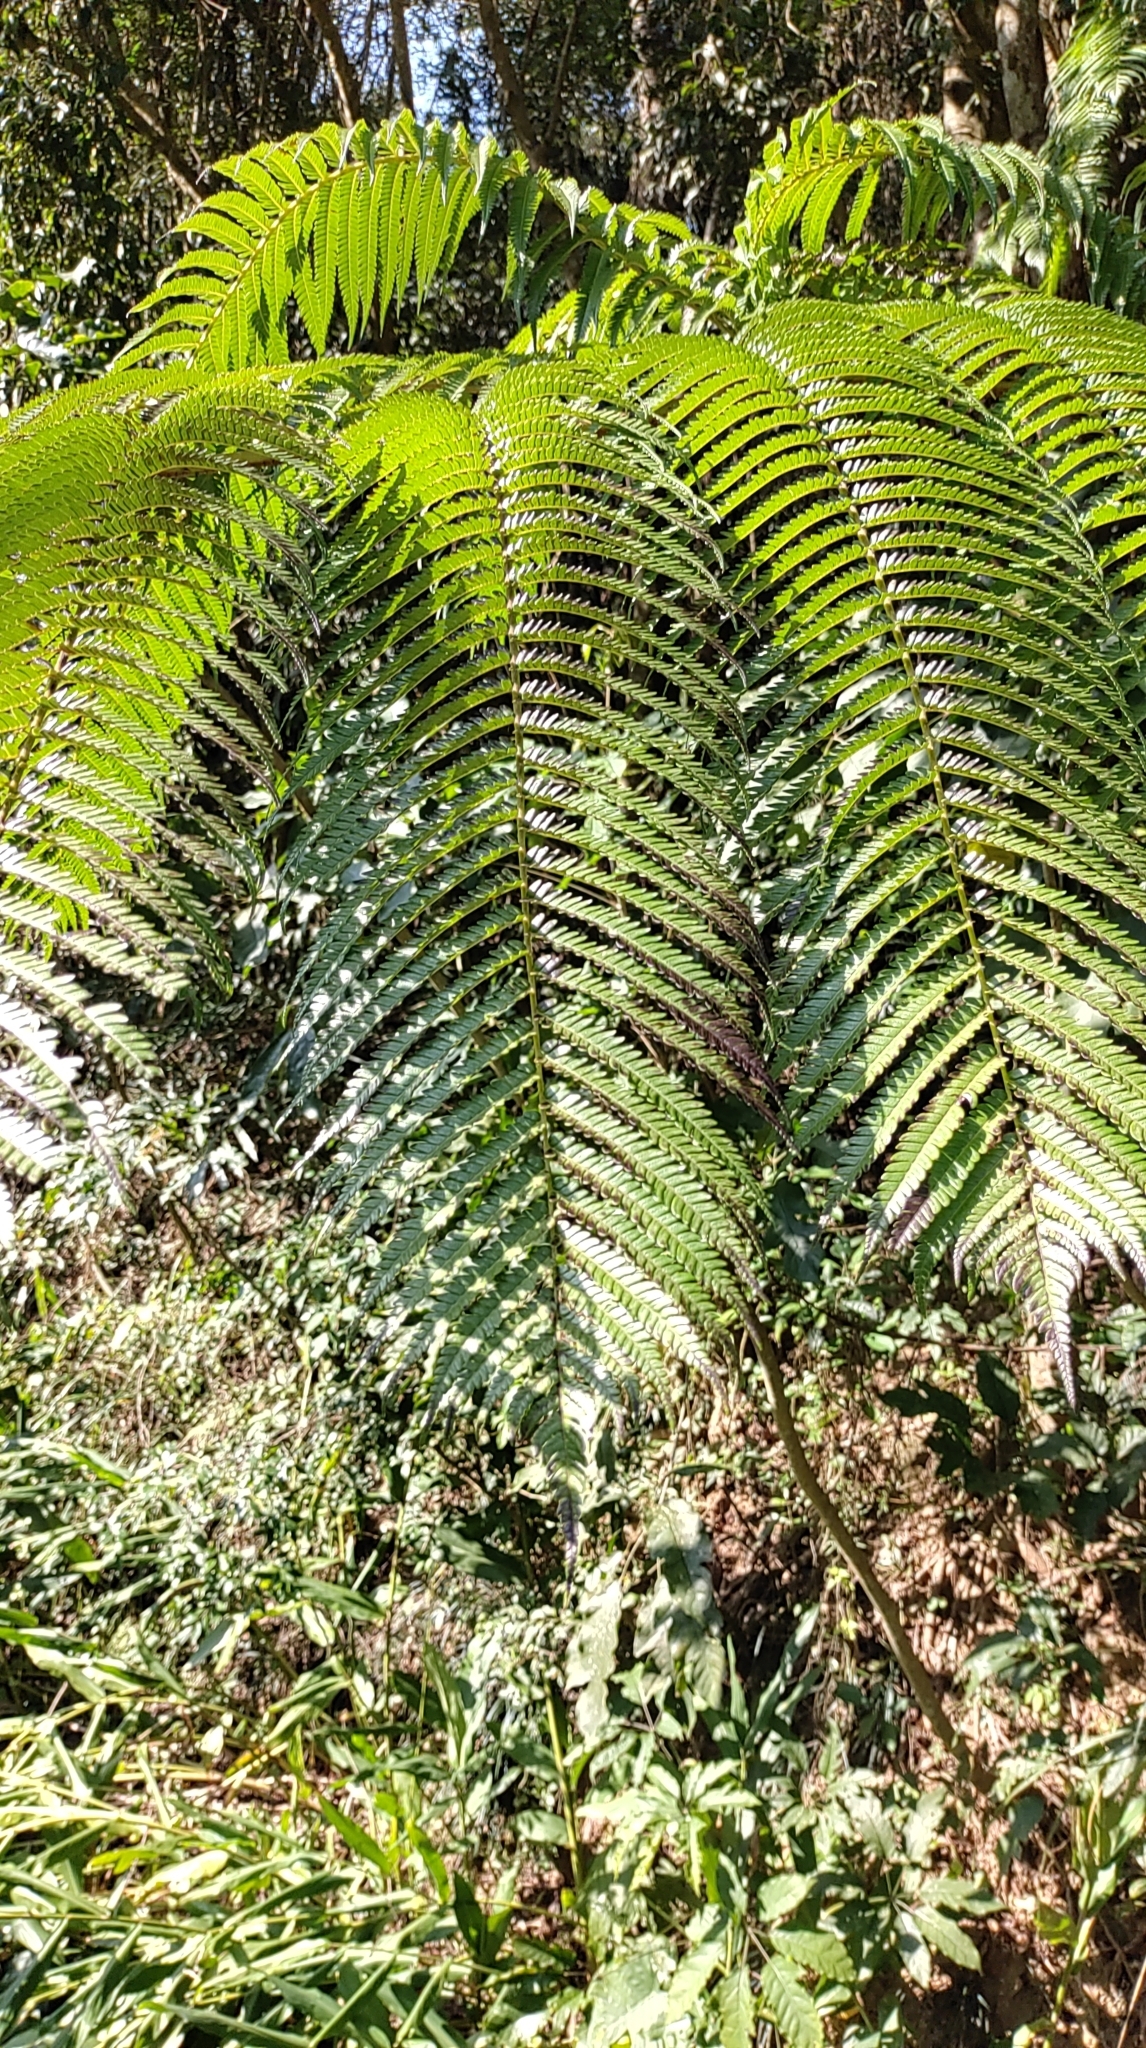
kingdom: Plantae
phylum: Tracheophyta
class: Polypodiopsida
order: Cyatheales
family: Cyatheaceae
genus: Alsophila
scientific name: Alsophila lepifera
